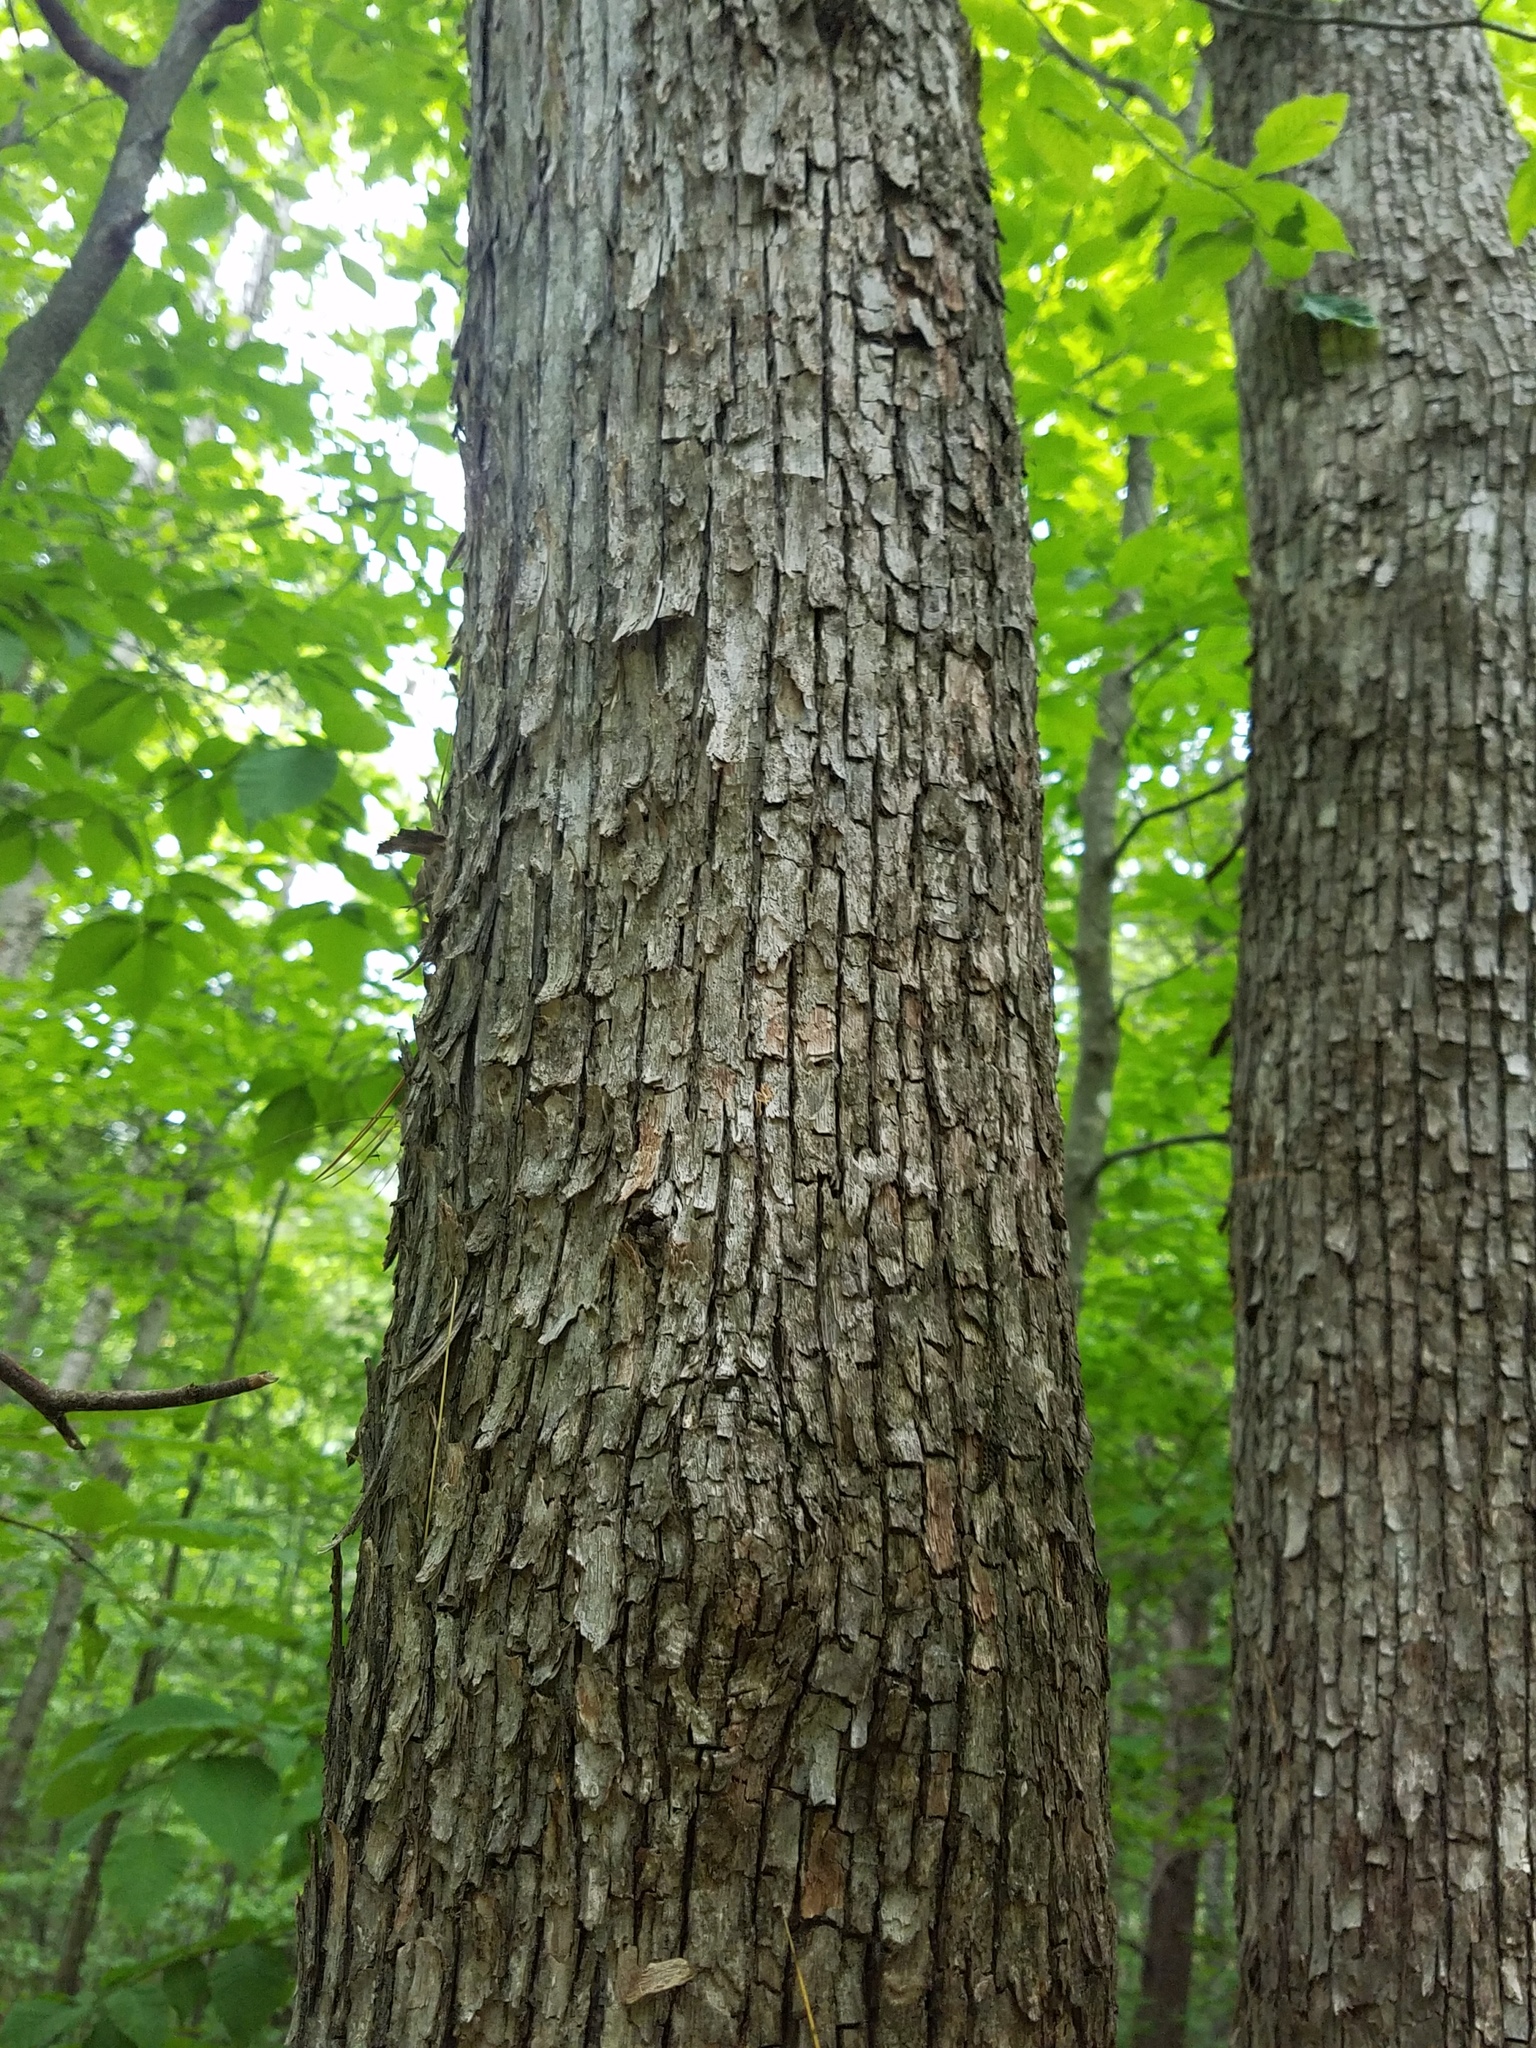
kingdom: Plantae
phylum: Tracheophyta
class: Magnoliopsida
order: Fagales
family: Betulaceae
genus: Ostrya
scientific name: Ostrya virginiana
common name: Ironwood
